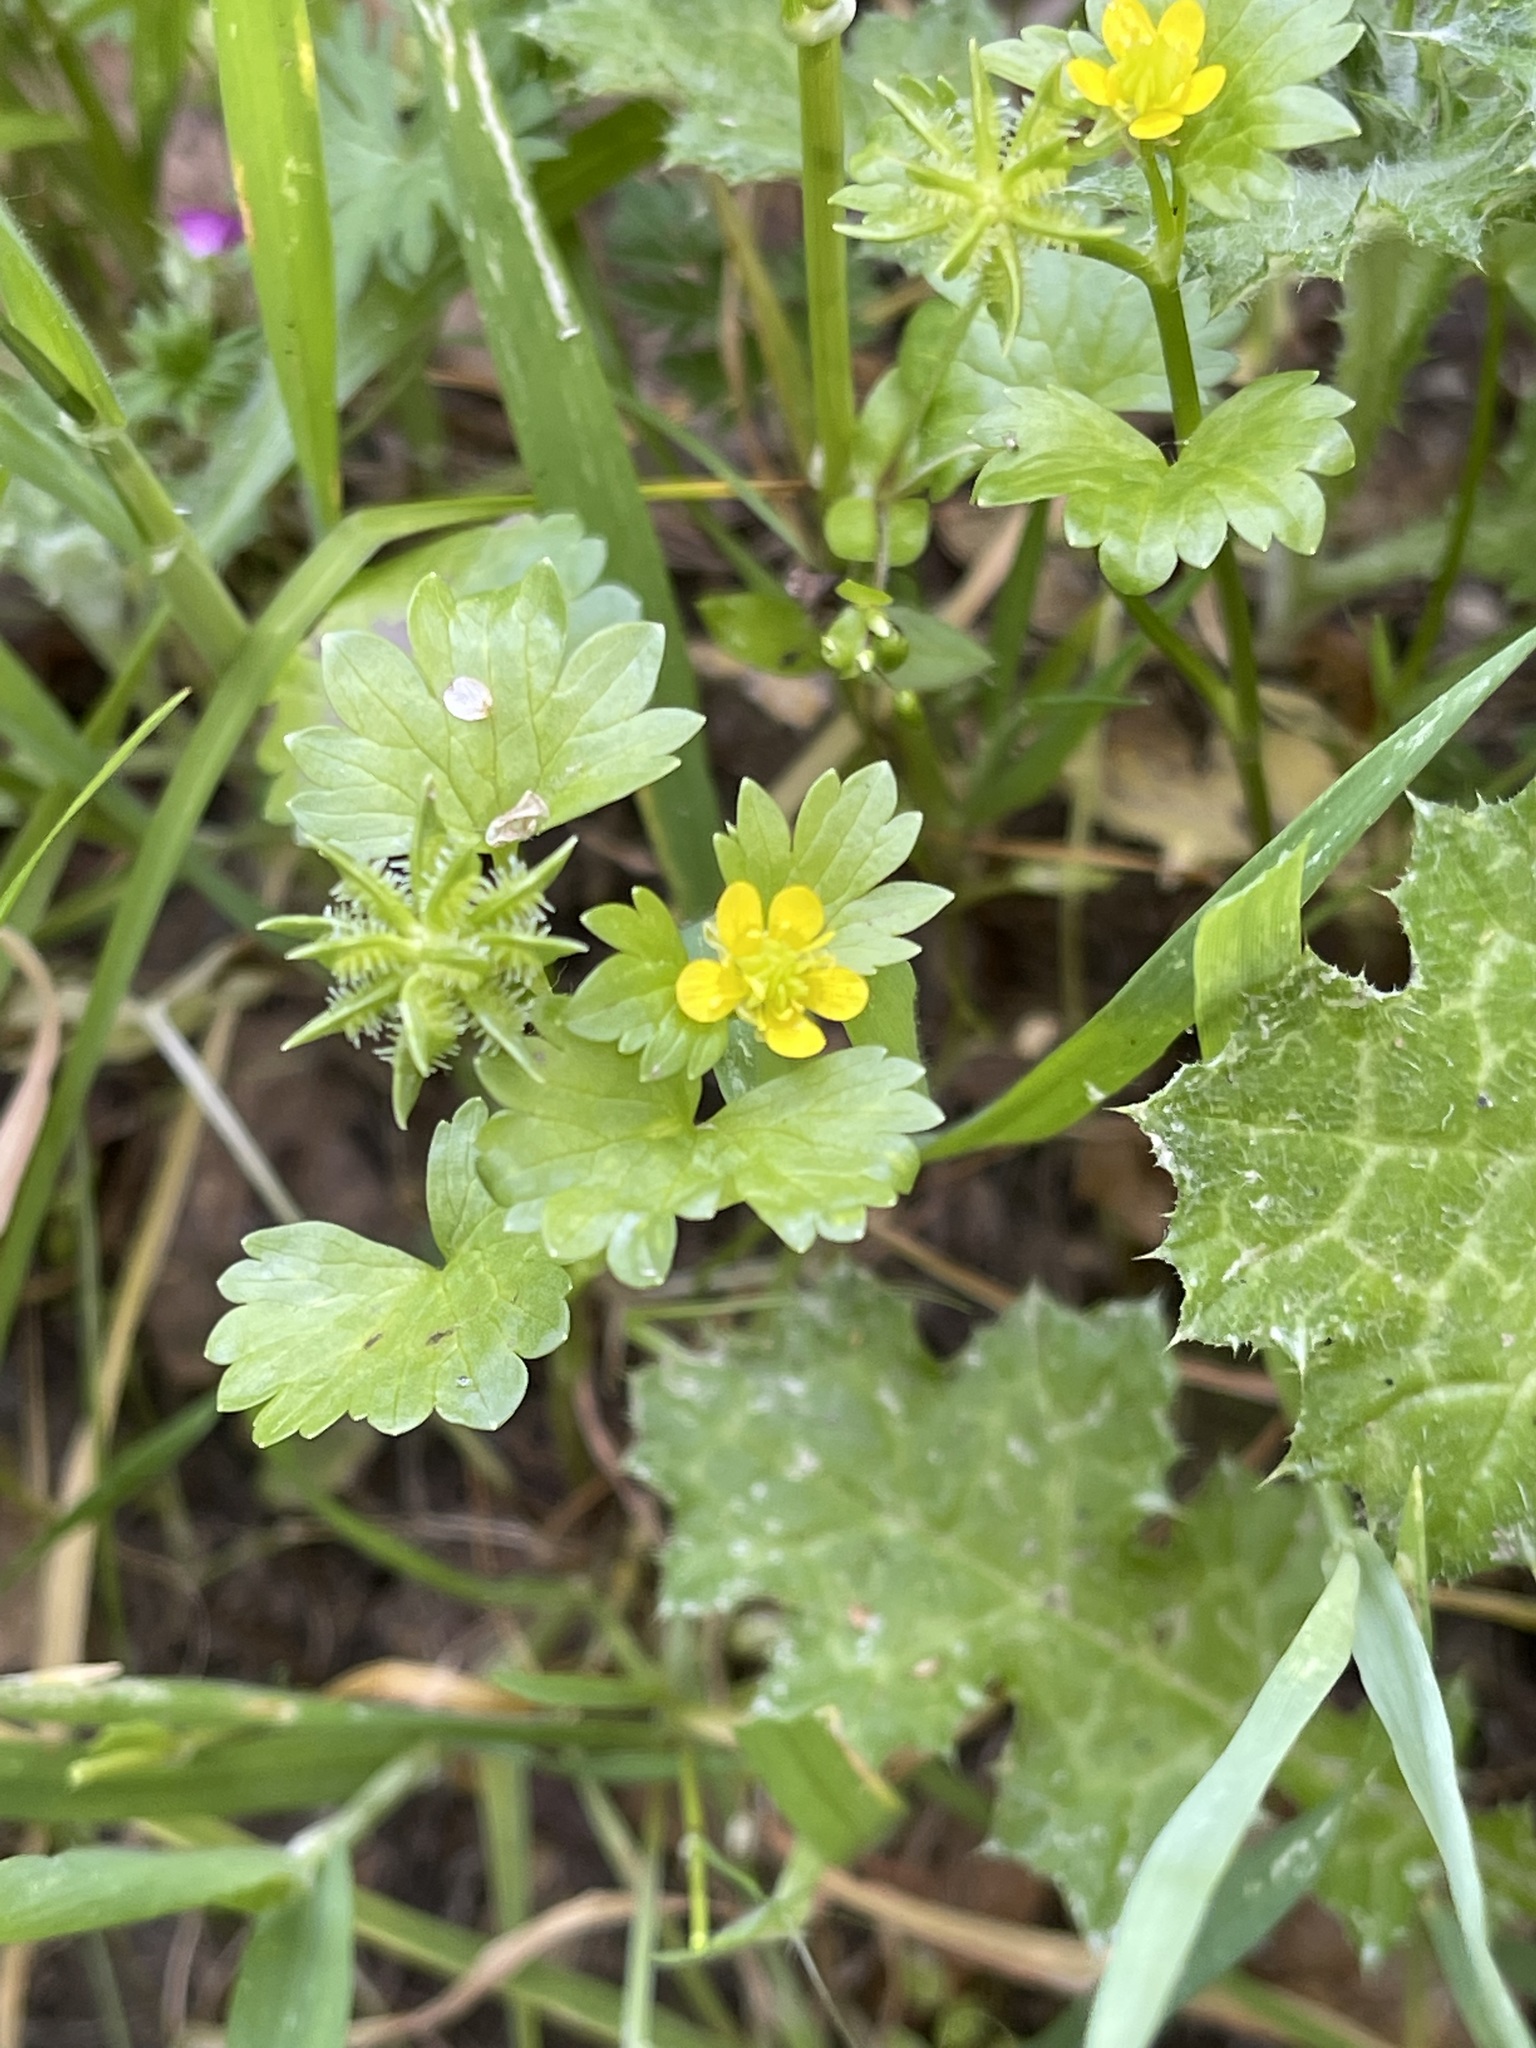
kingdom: Plantae
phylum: Tracheophyta
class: Magnoliopsida
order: Ranunculales
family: Ranunculaceae
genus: Ranunculus
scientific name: Ranunculus muricatus
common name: Rough-fruited buttercup
